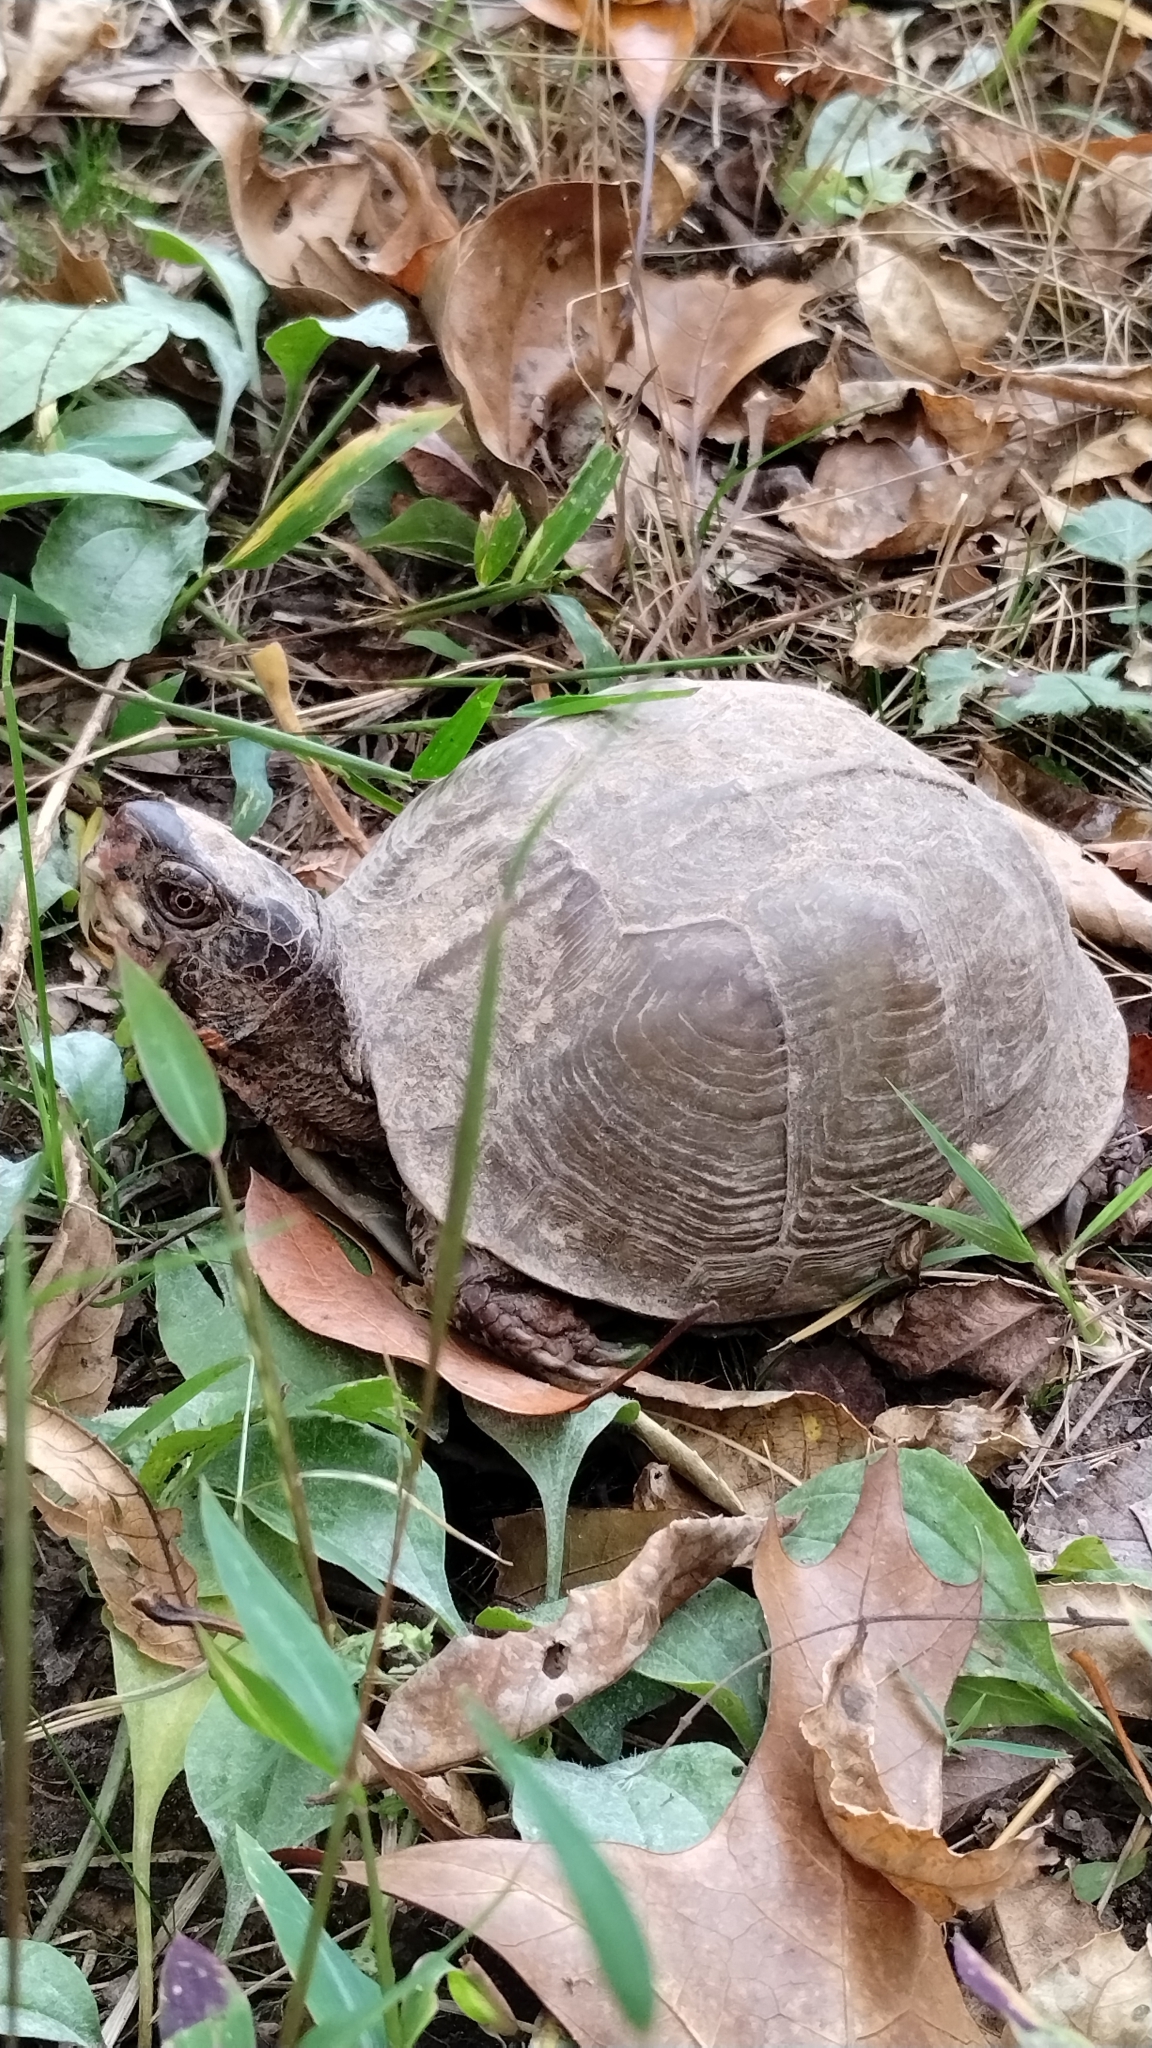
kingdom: Animalia
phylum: Chordata
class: Testudines
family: Emydidae
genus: Terrapene
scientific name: Terrapene carolina
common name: Common box turtle
